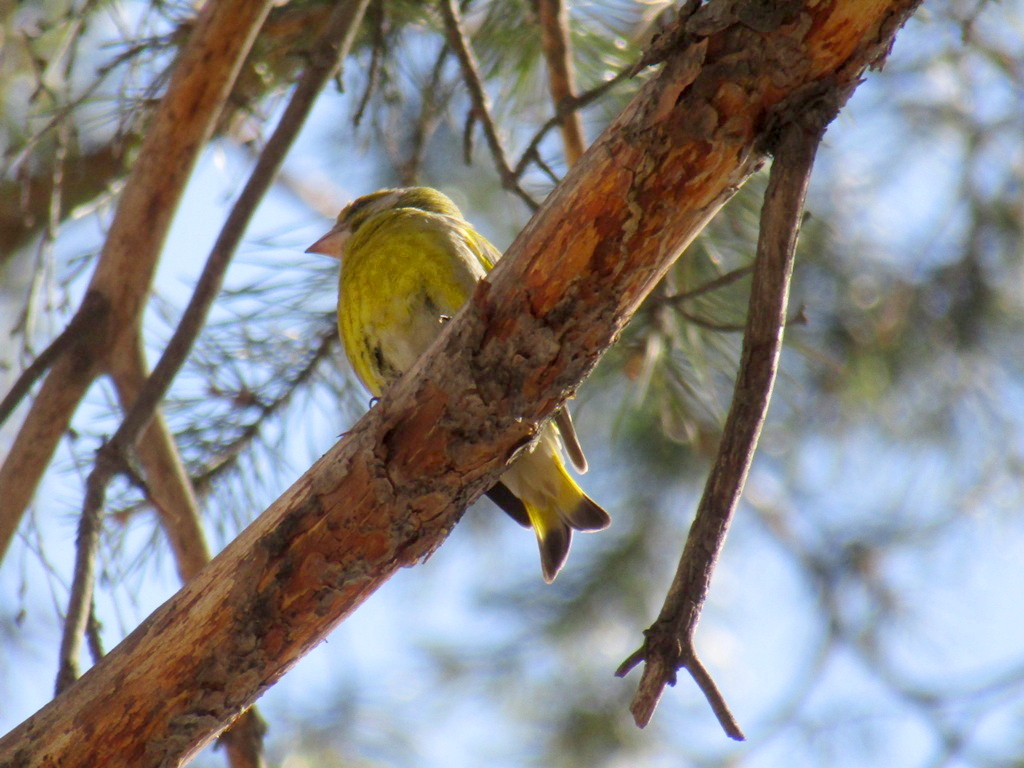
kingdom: Plantae
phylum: Tracheophyta
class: Liliopsida
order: Poales
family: Poaceae
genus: Chloris
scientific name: Chloris chloris
